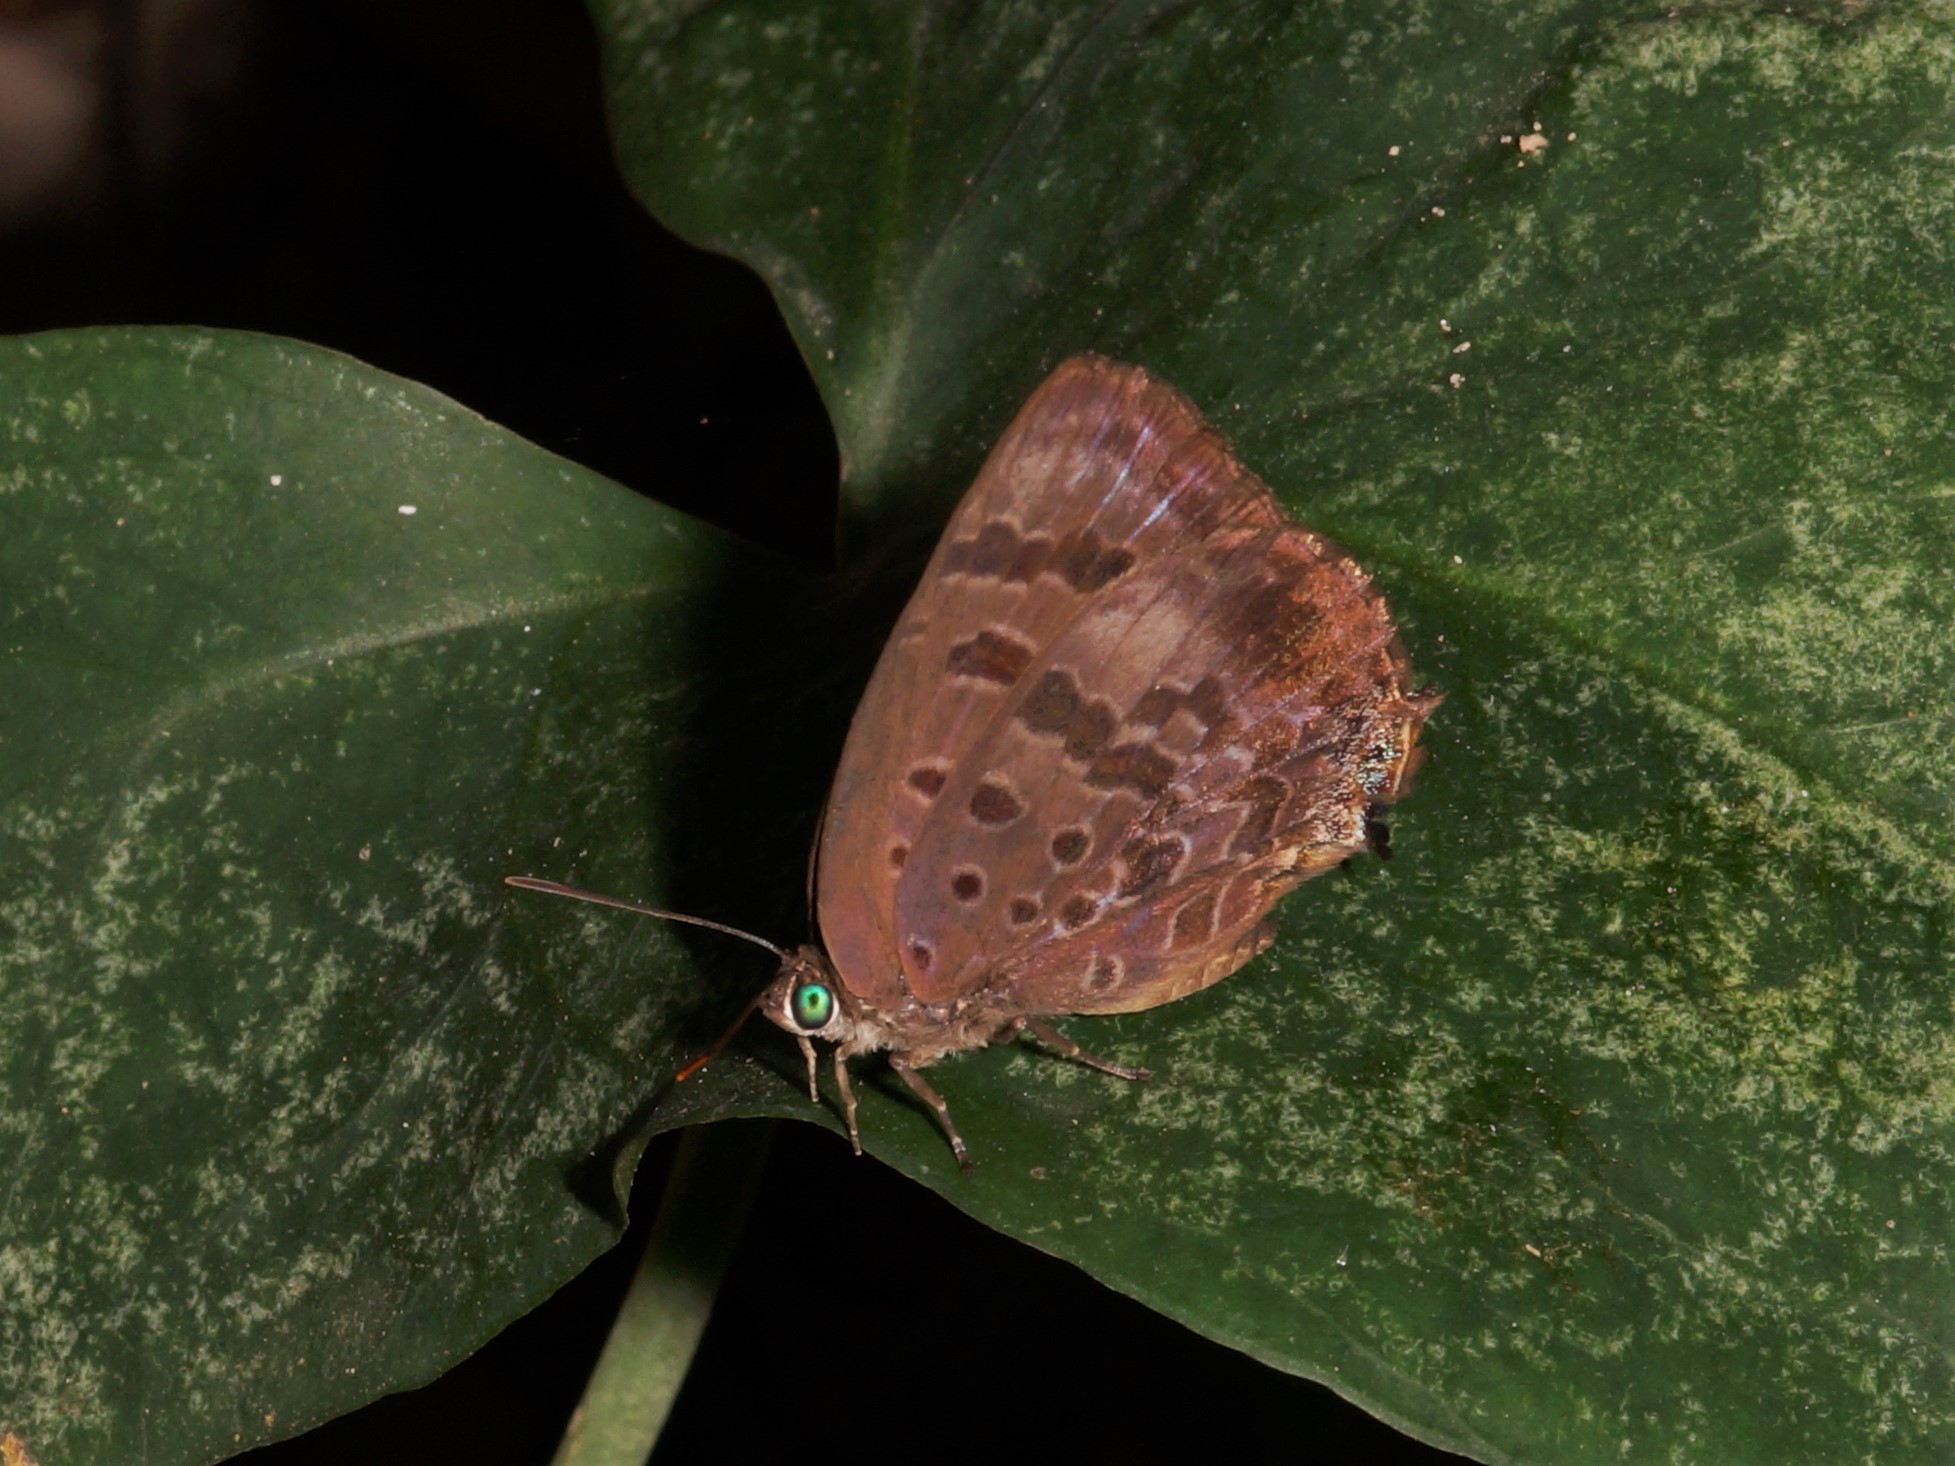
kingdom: Animalia
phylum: Arthropoda
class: Insecta
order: Lepidoptera
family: Lycaenidae
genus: Arhopala
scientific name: Arhopala
